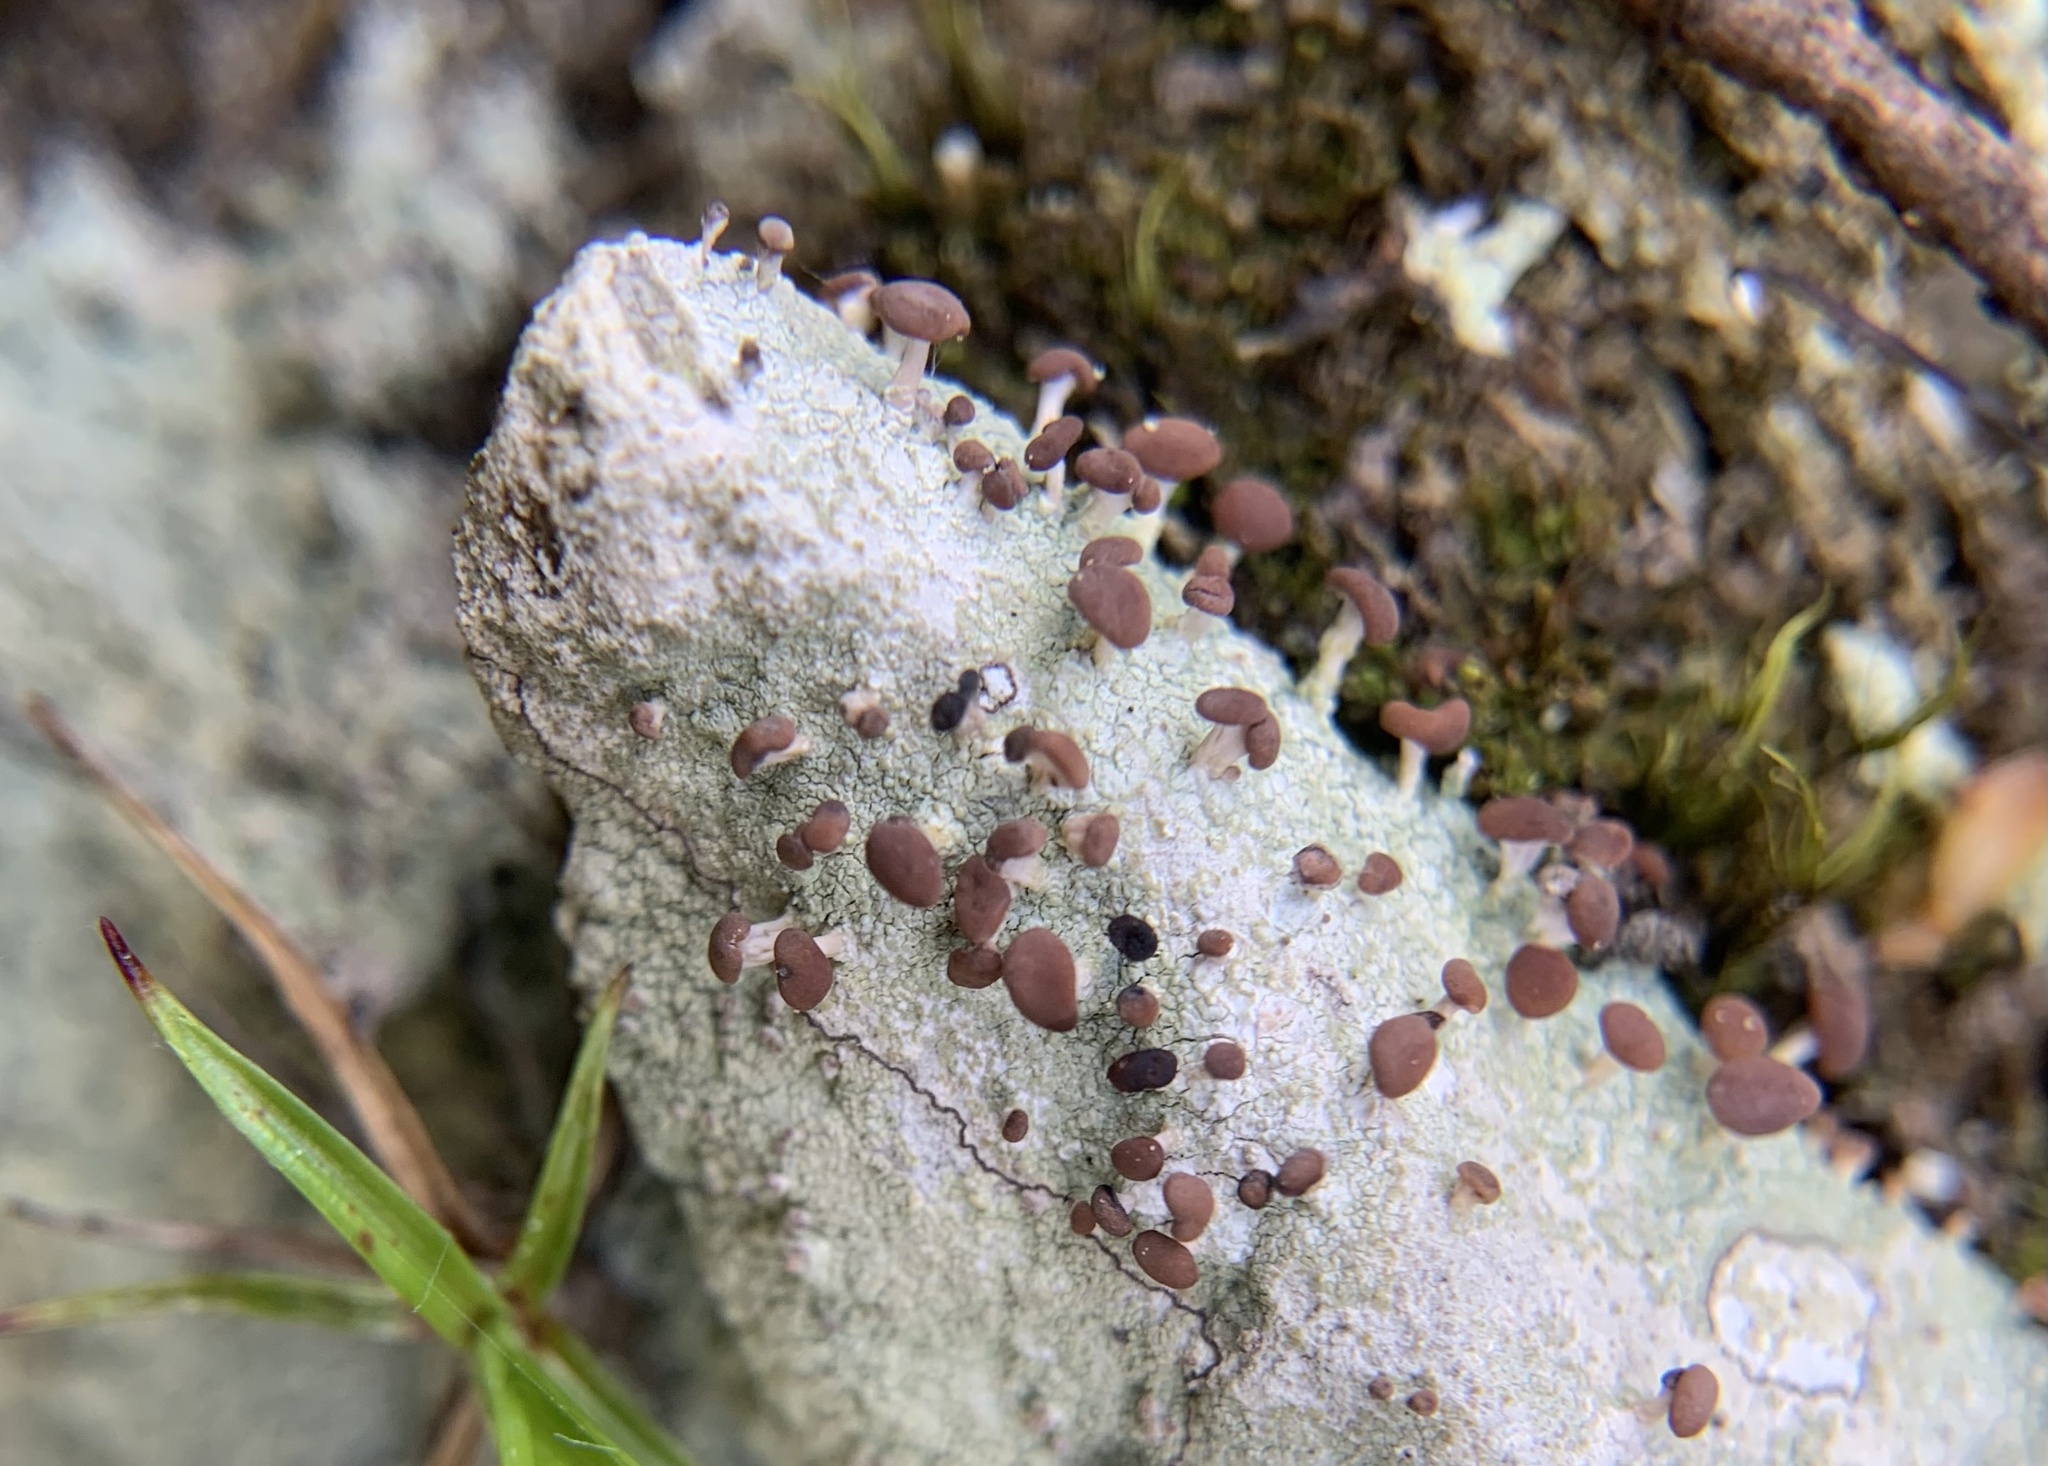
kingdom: Fungi
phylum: Ascomycota
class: Lecanoromycetes
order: Baeomycetales
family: Baeomycetaceae
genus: Baeomyces
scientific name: Baeomyces rufus
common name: Brown beret lichen
